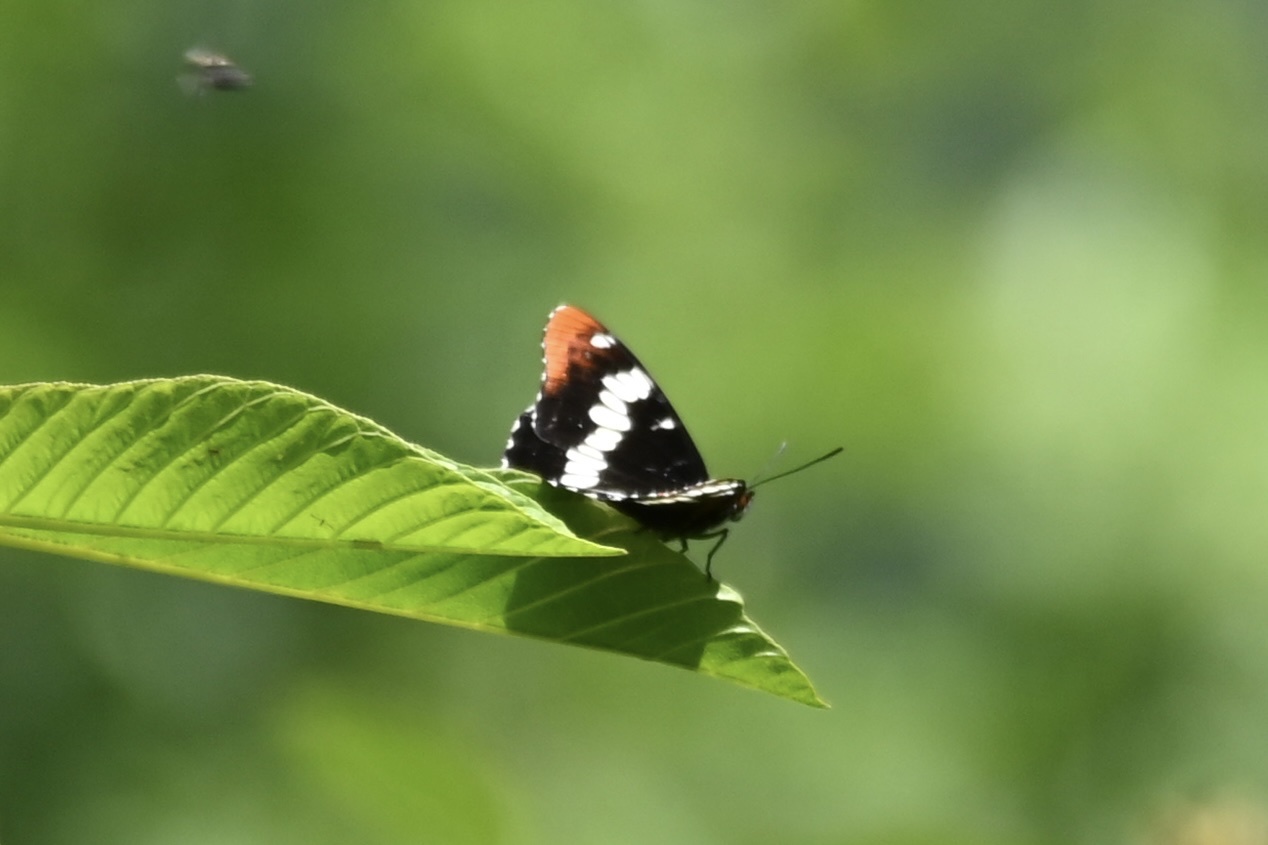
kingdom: Animalia
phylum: Arthropoda
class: Insecta
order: Lepidoptera
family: Nymphalidae
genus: Limenitis
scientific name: Limenitis lorquini
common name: Lorquin's admiral
